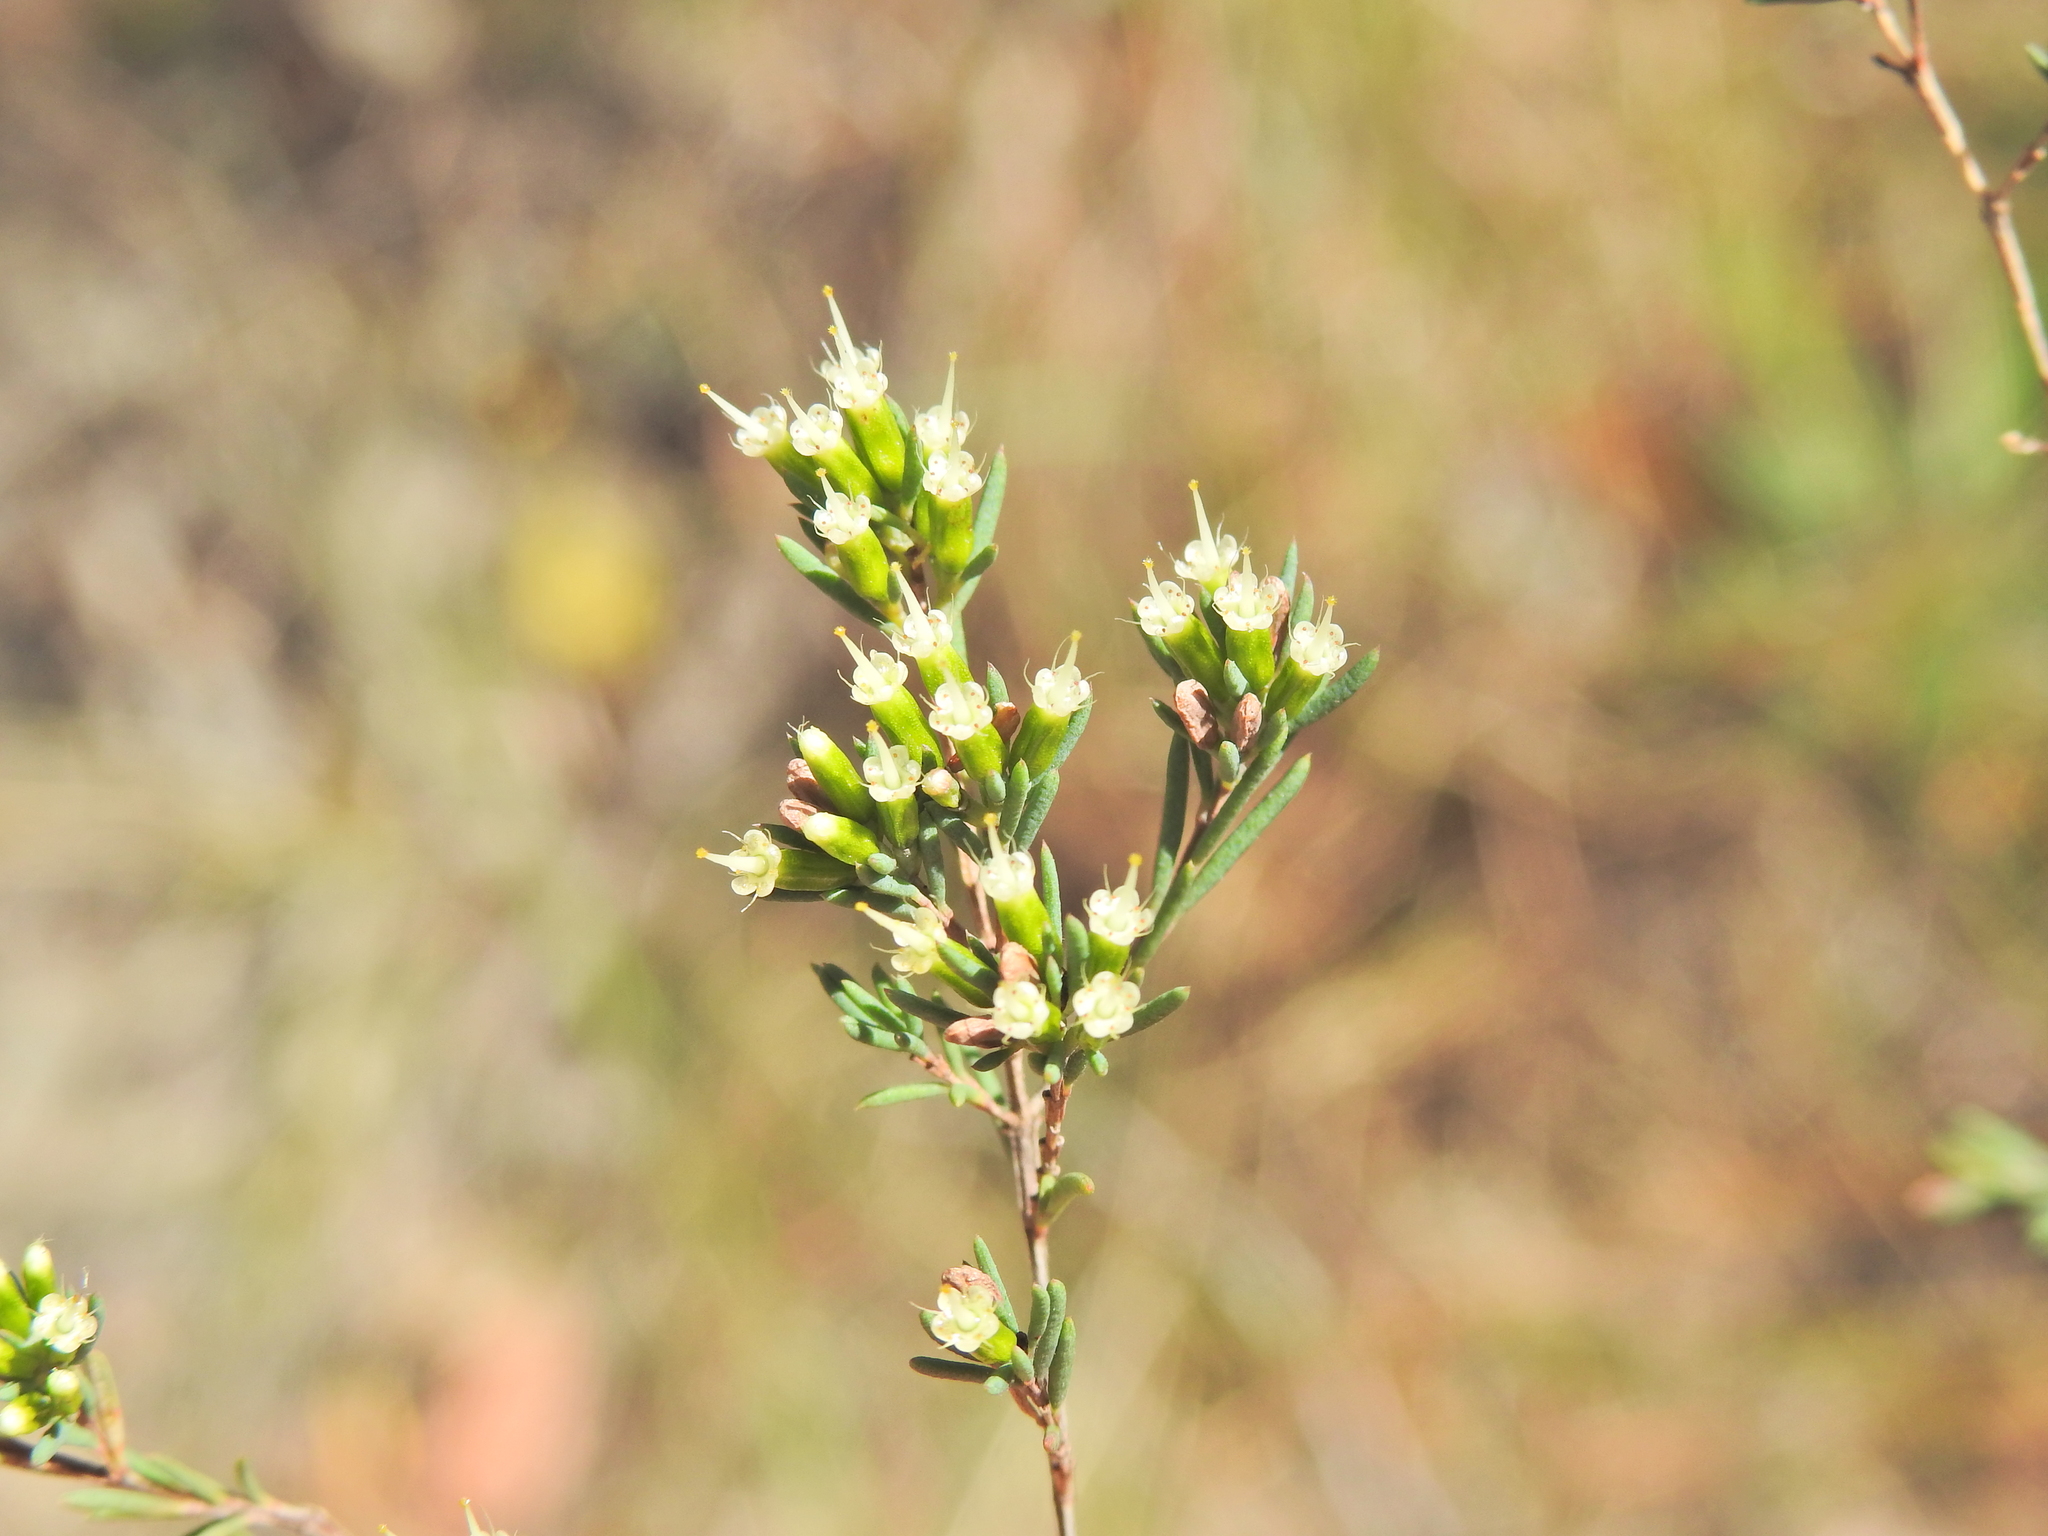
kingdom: Plantae
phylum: Tracheophyta
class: Magnoliopsida
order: Myrtales
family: Myrtaceae
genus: Homoranthus
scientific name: Homoranthus virgatus
